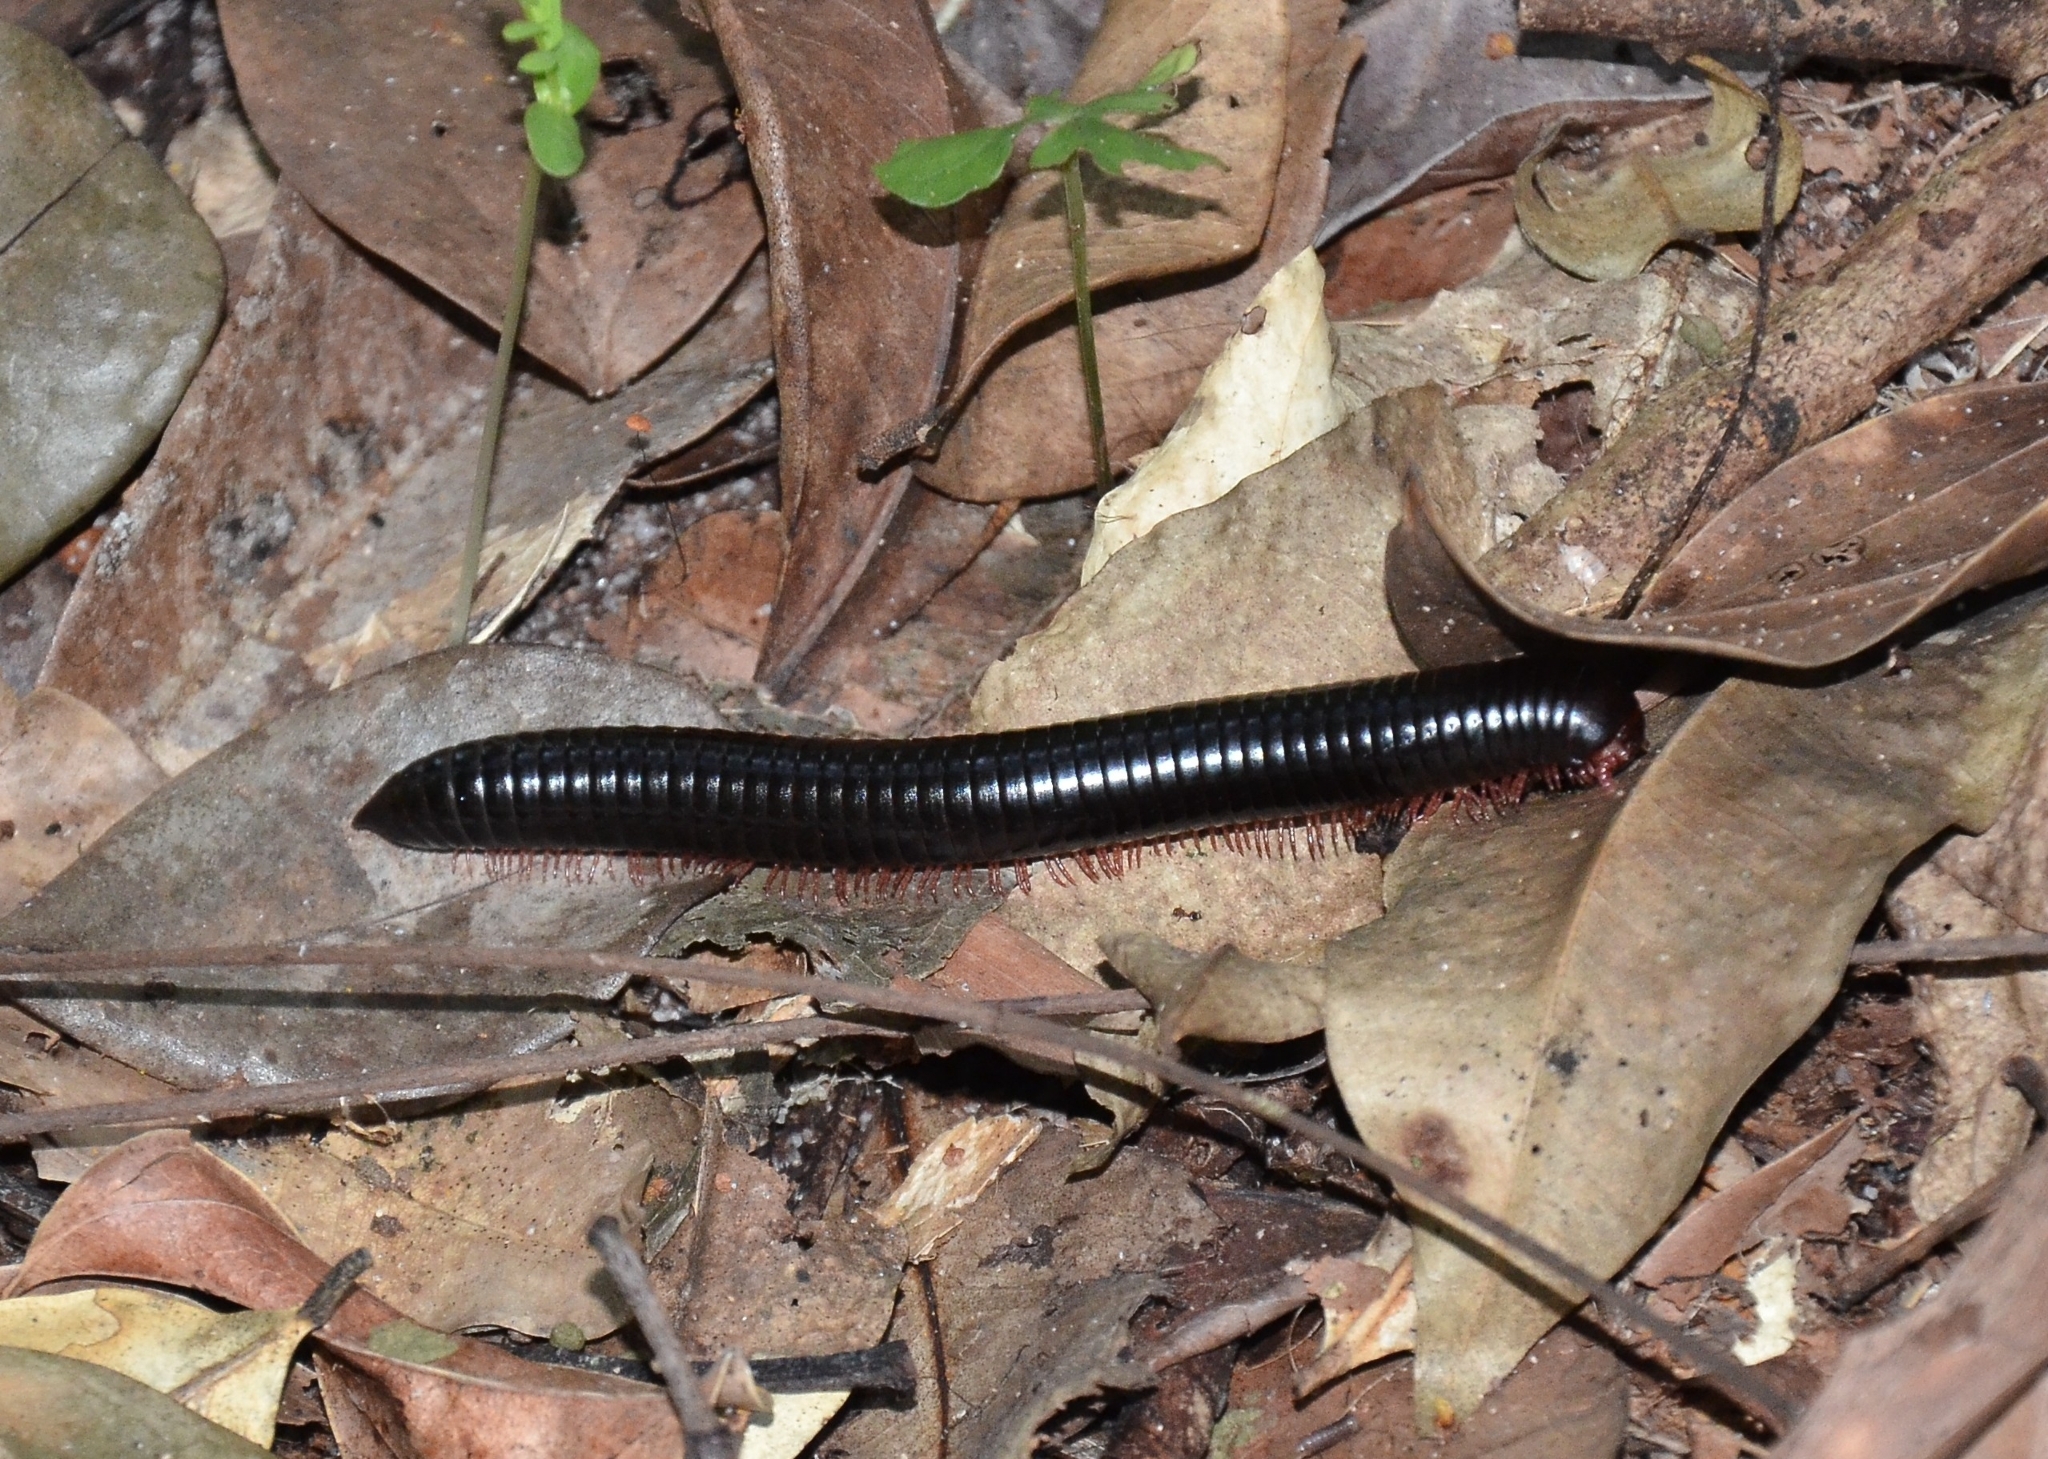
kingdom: Animalia
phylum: Arthropoda
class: Diplopoda
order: Spirostreptida
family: Harpagophoridae
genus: Phyllogonostreptus
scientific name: Phyllogonostreptus nigrolabiatus
